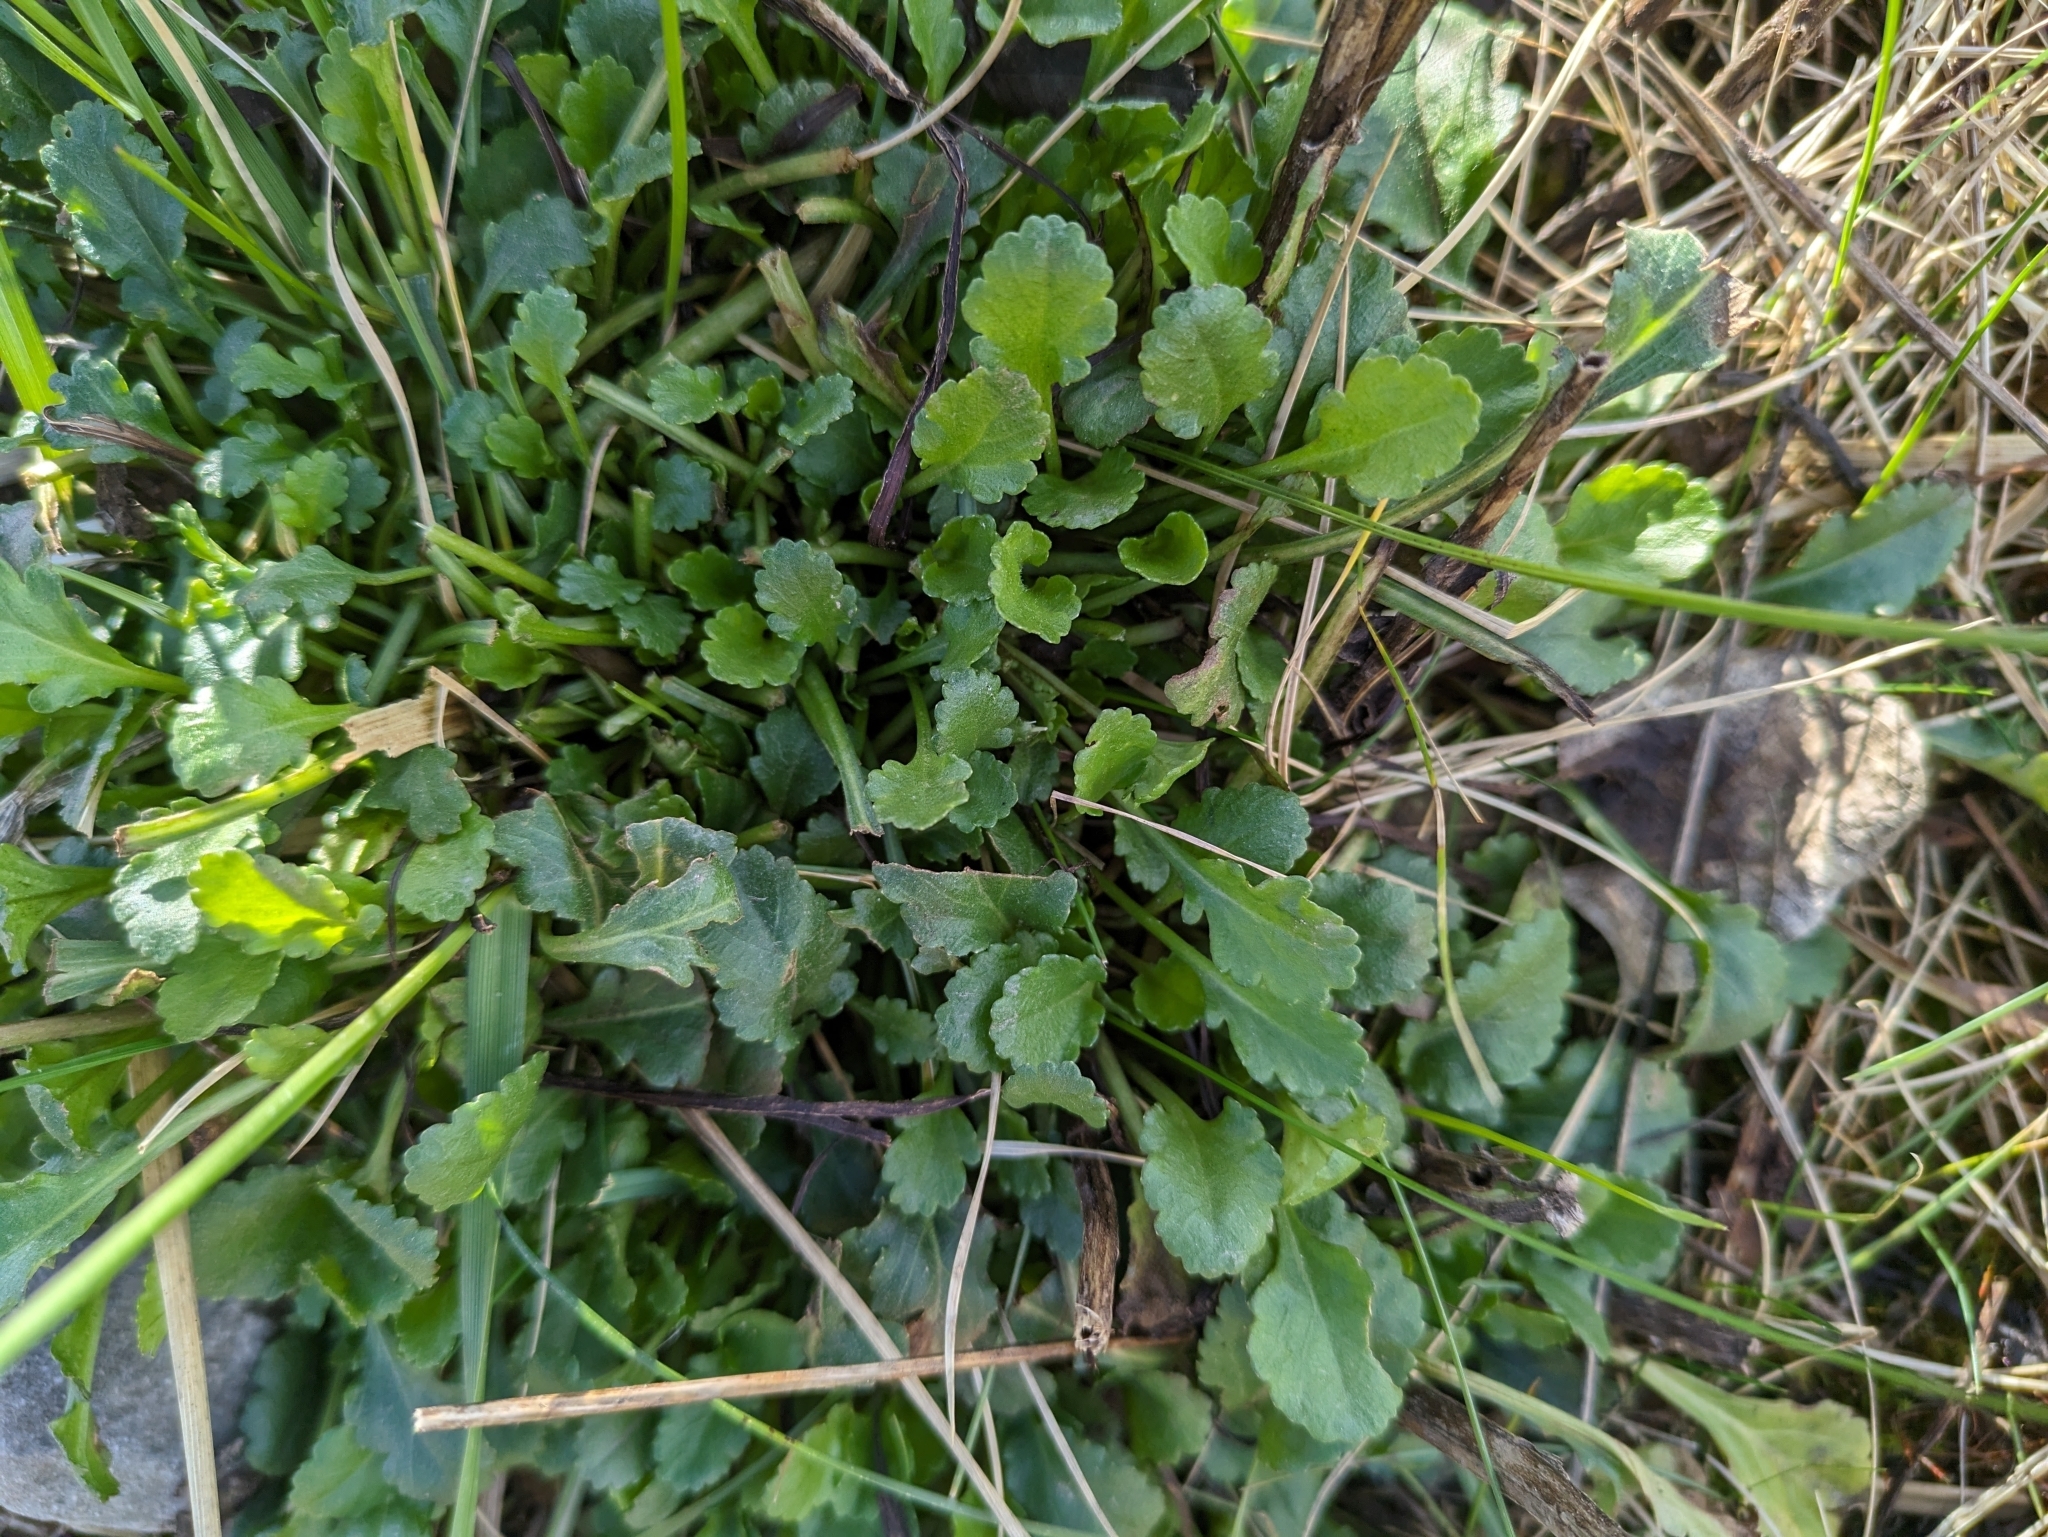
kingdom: Plantae
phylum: Tracheophyta
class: Magnoliopsida
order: Asterales
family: Asteraceae
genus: Leucanthemum
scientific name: Leucanthemum vulgare
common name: Oxeye daisy
